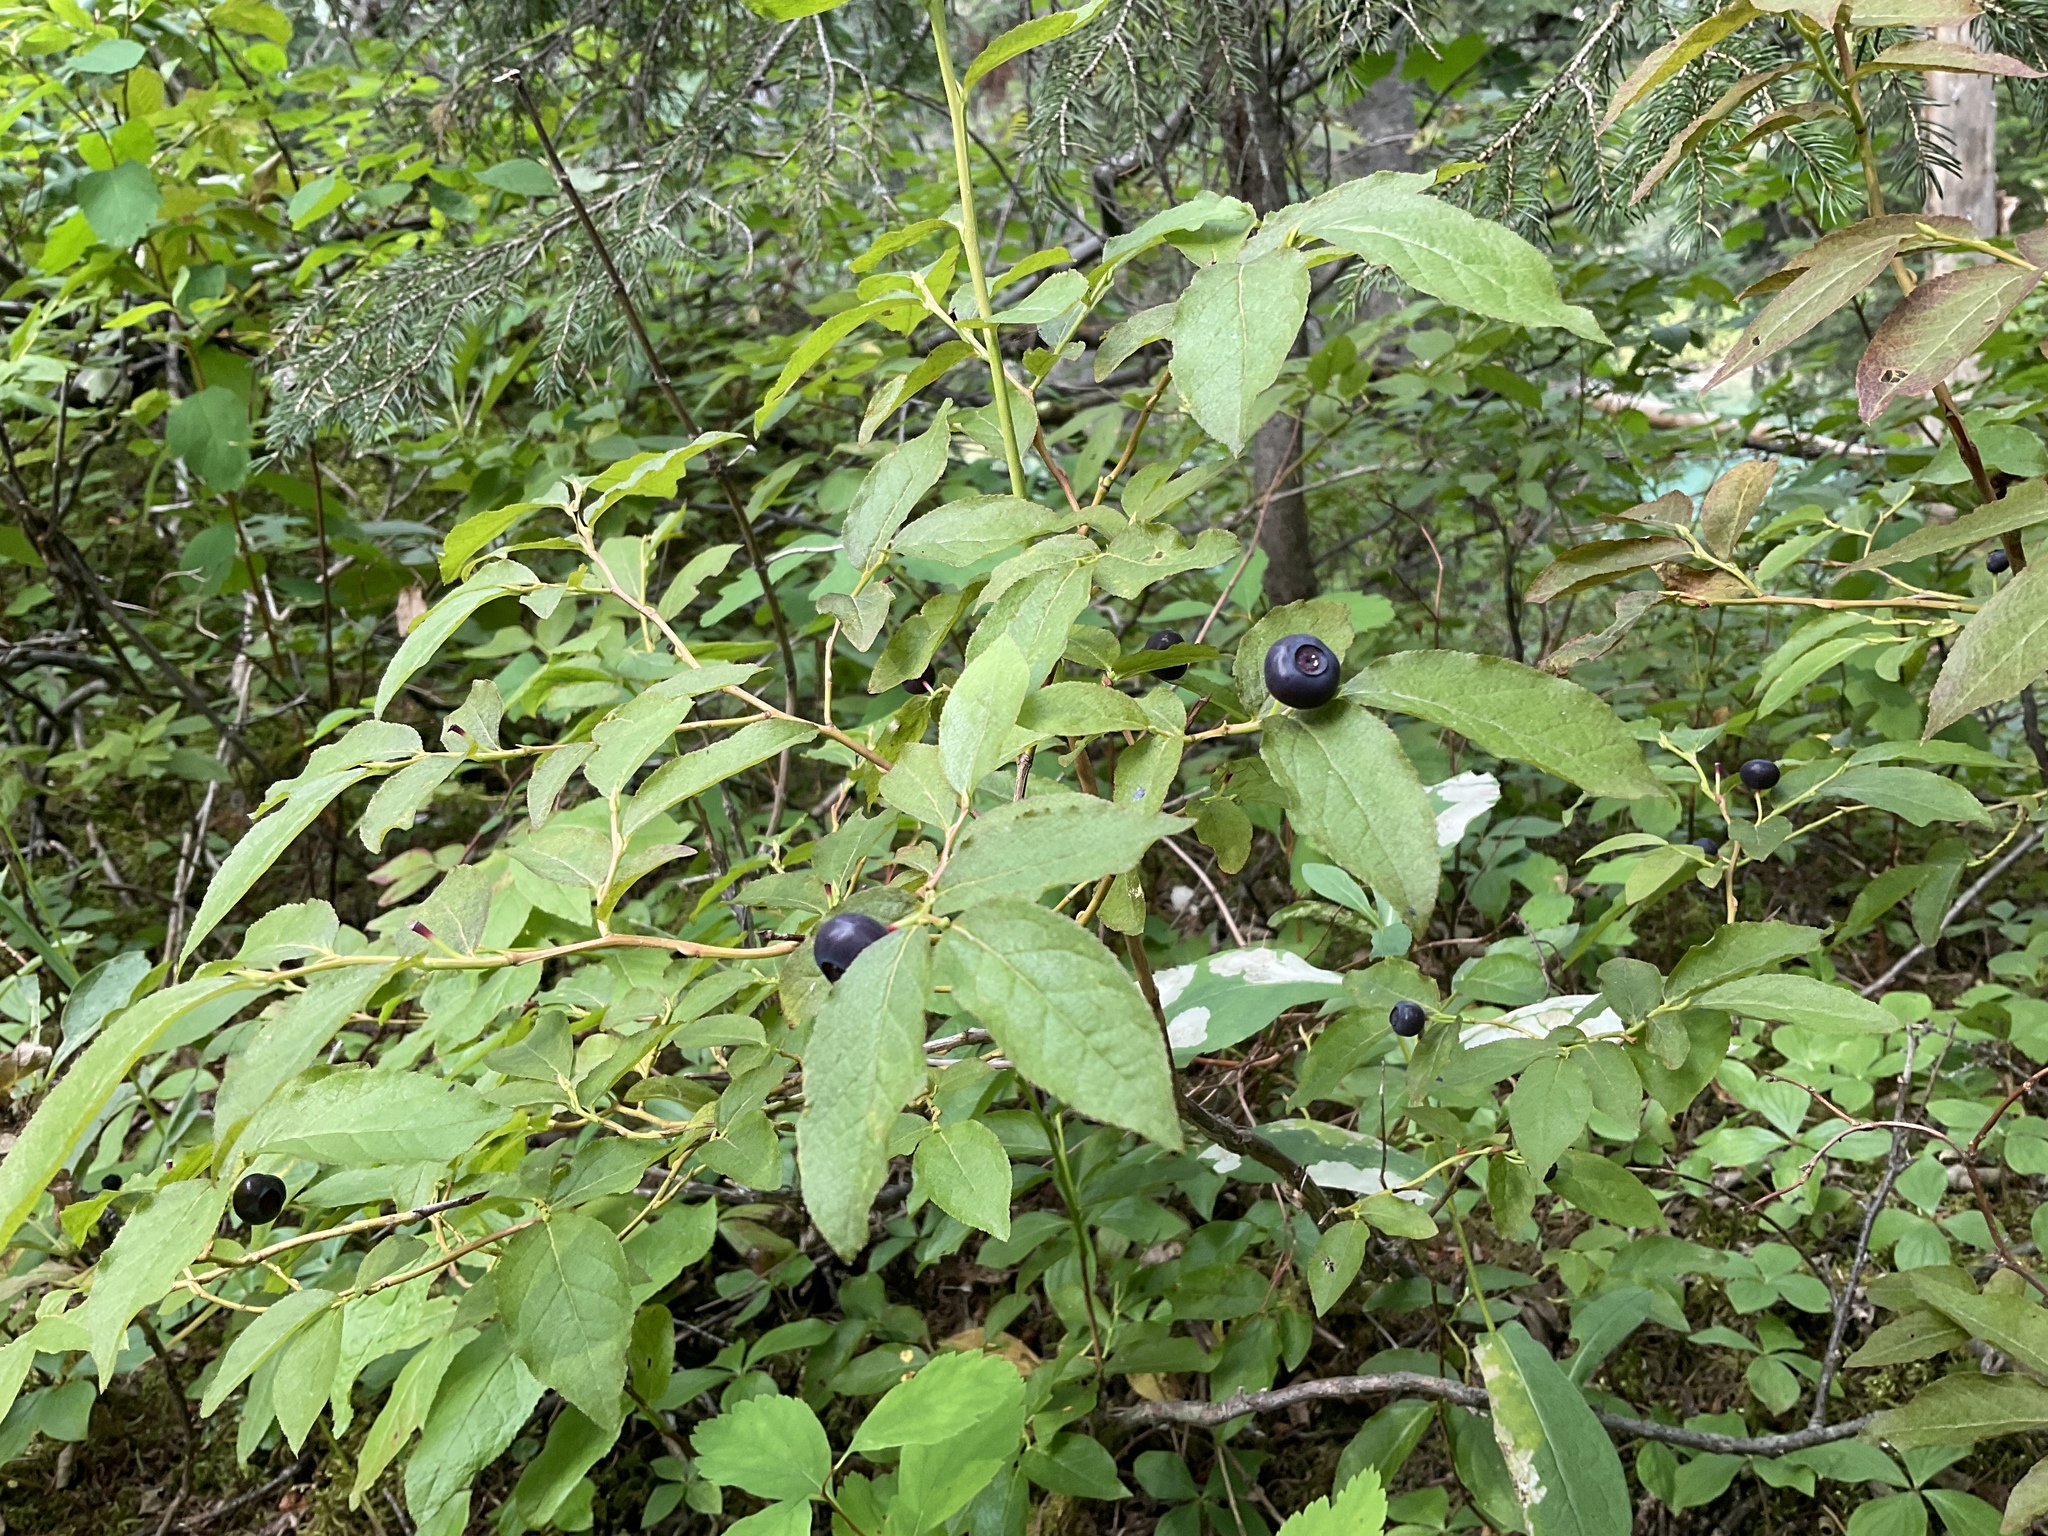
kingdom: Plantae
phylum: Tracheophyta
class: Magnoliopsida
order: Ericales
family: Ericaceae
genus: Vaccinium
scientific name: Vaccinium membranaceum
